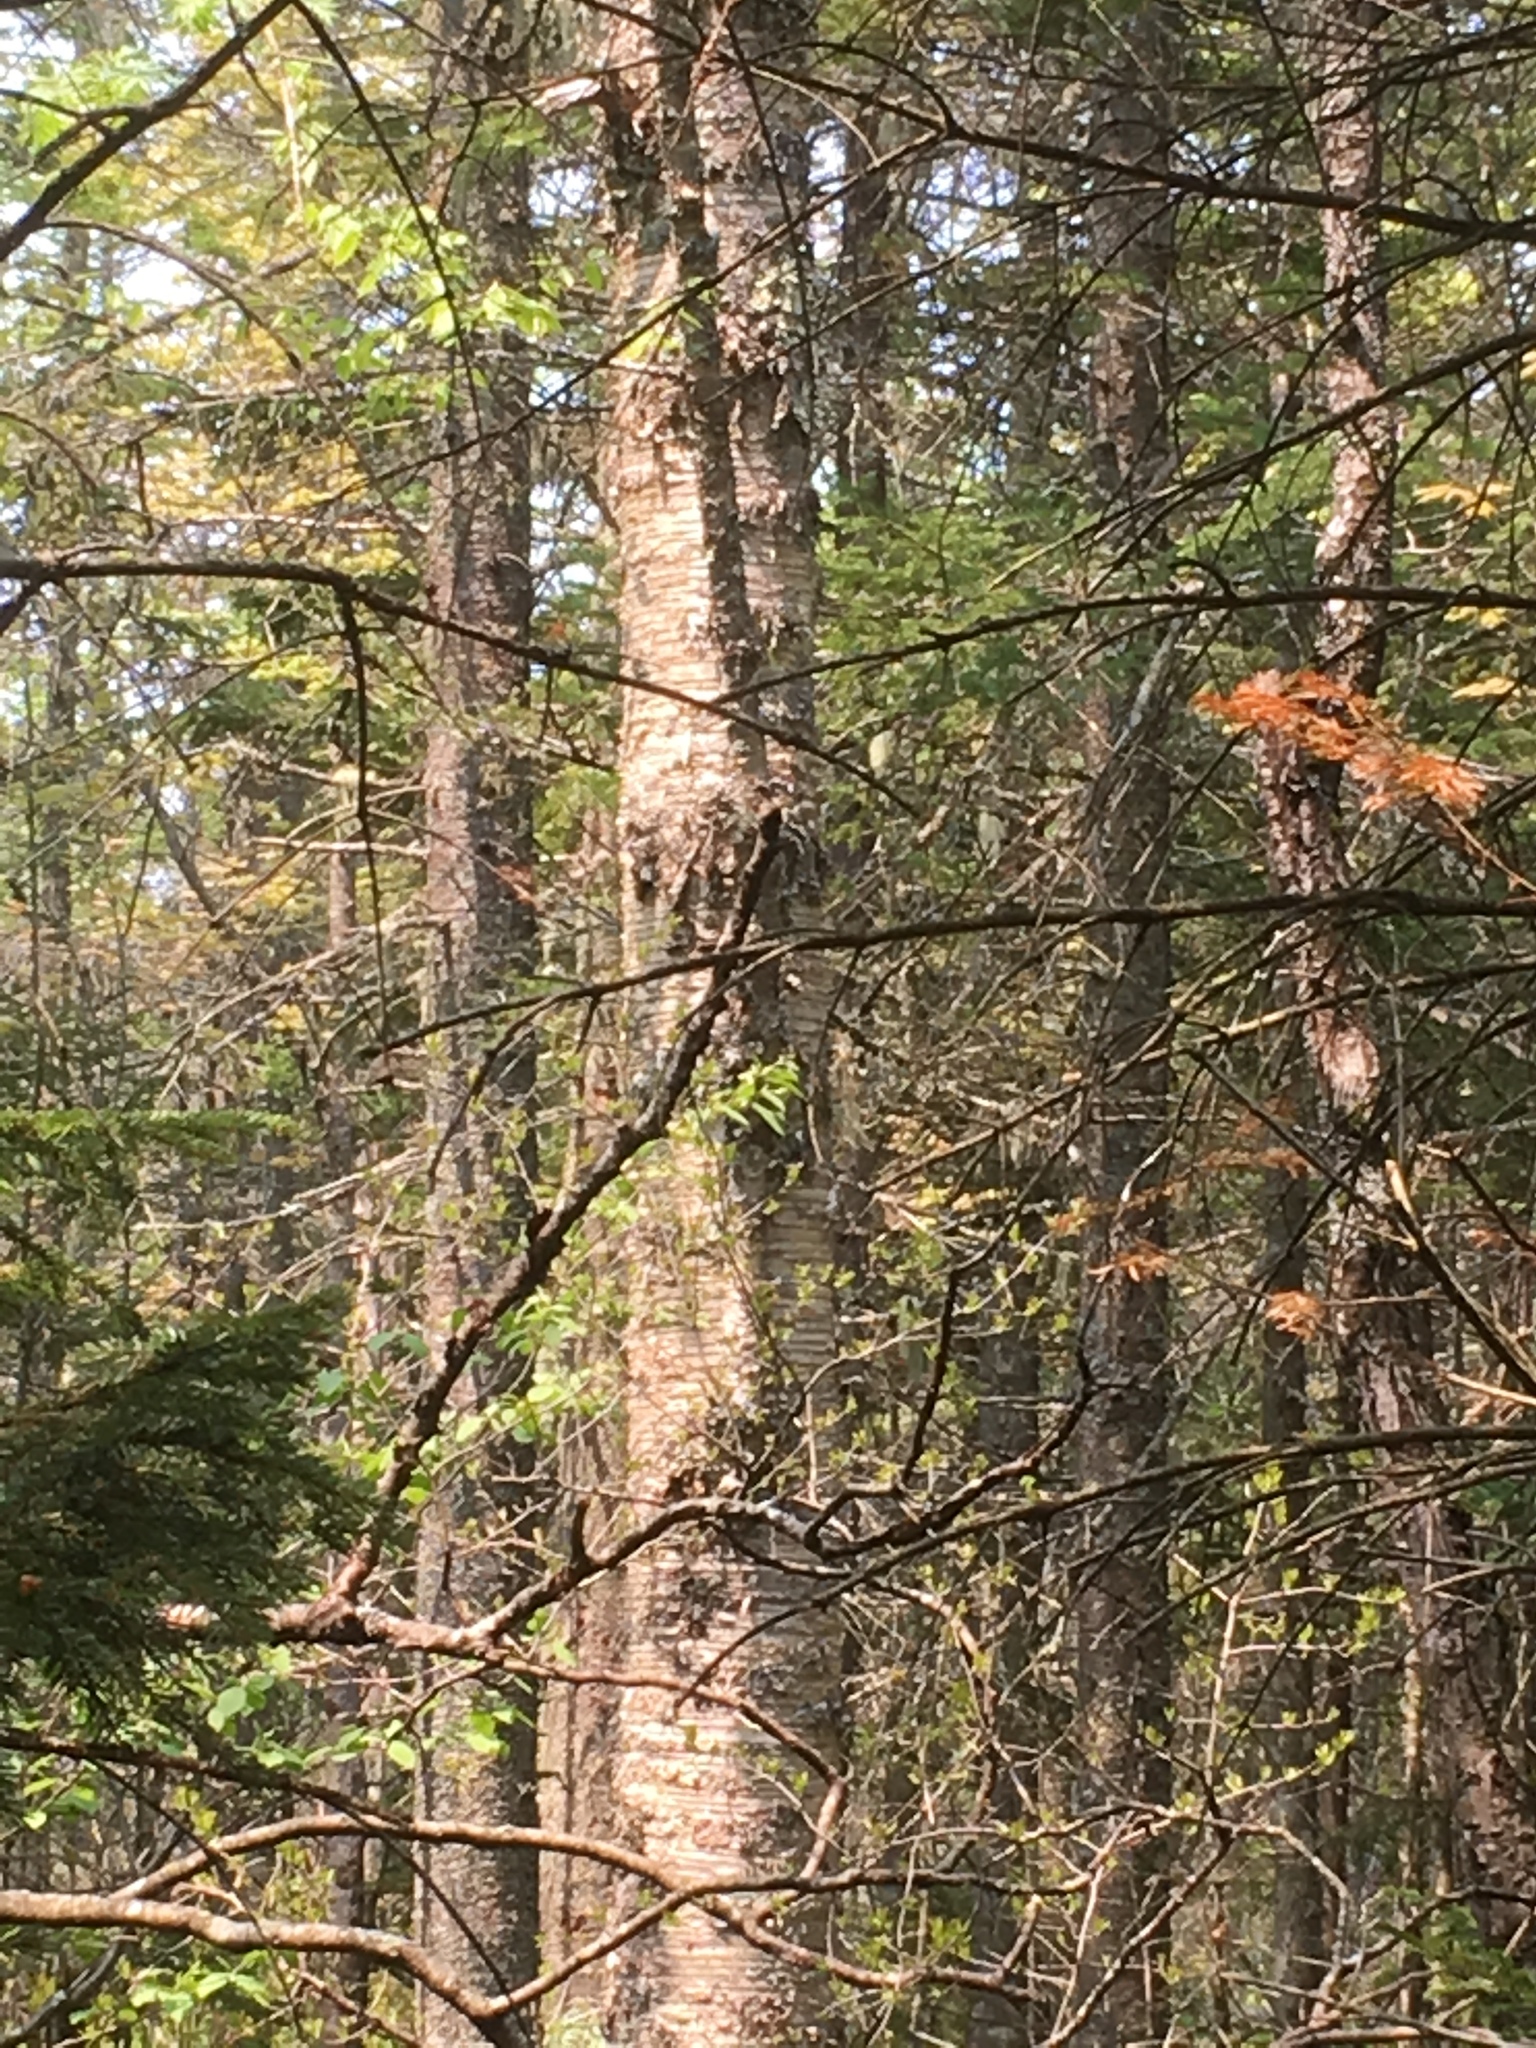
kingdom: Plantae
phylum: Tracheophyta
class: Magnoliopsida
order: Fagales
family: Betulaceae
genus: Betula
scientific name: Betula alleghaniensis
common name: Yellow birch
